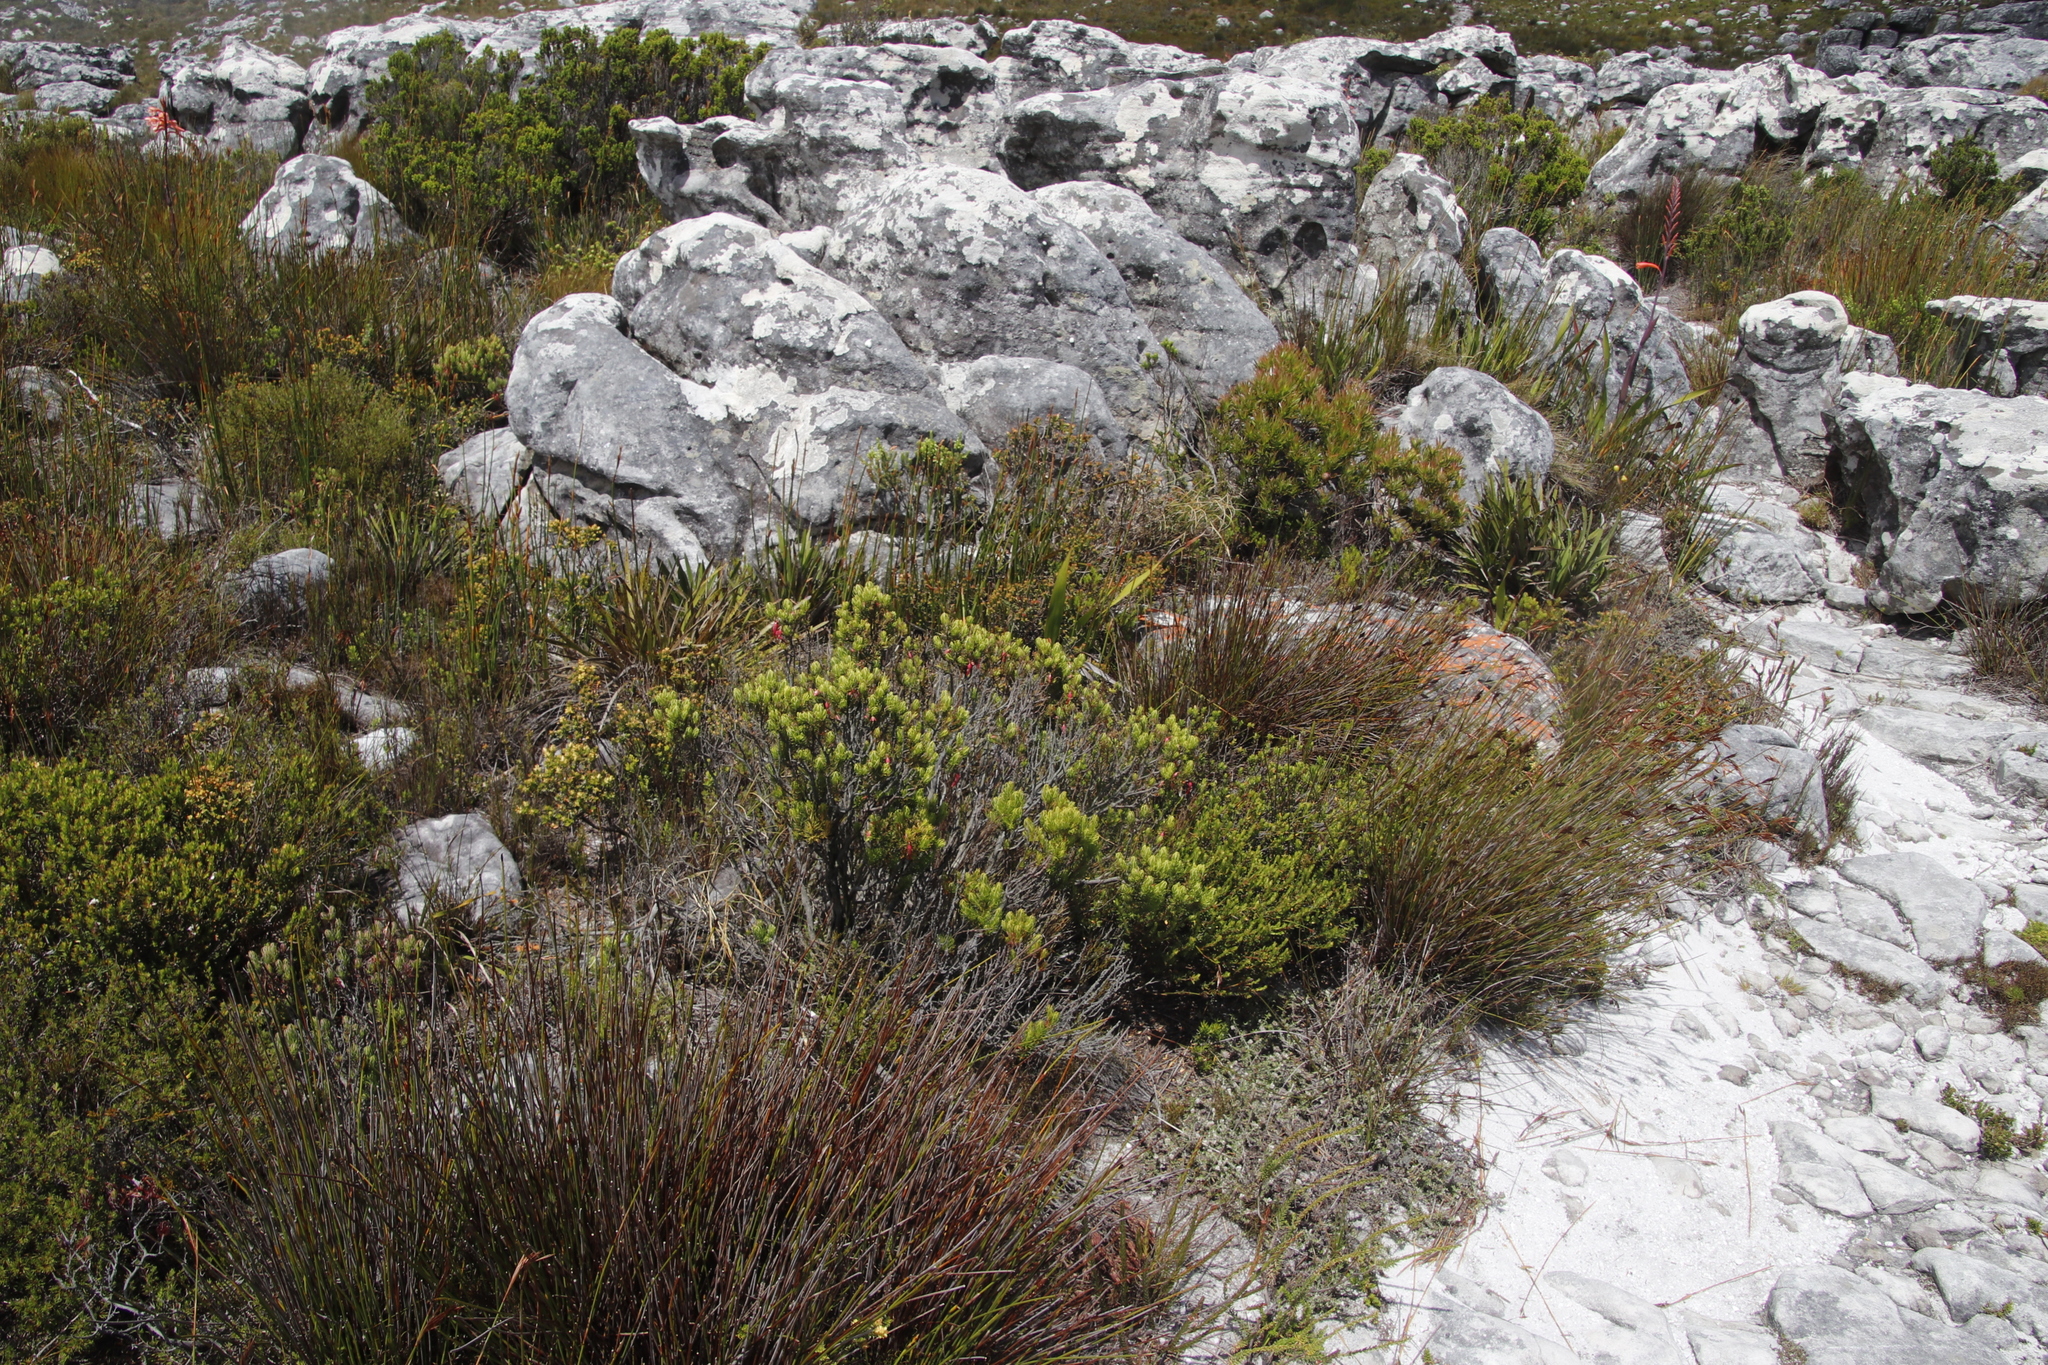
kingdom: Plantae
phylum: Tracheophyta
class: Magnoliopsida
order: Ericales
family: Ericaceae
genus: Erica
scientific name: Erica plukenetii
